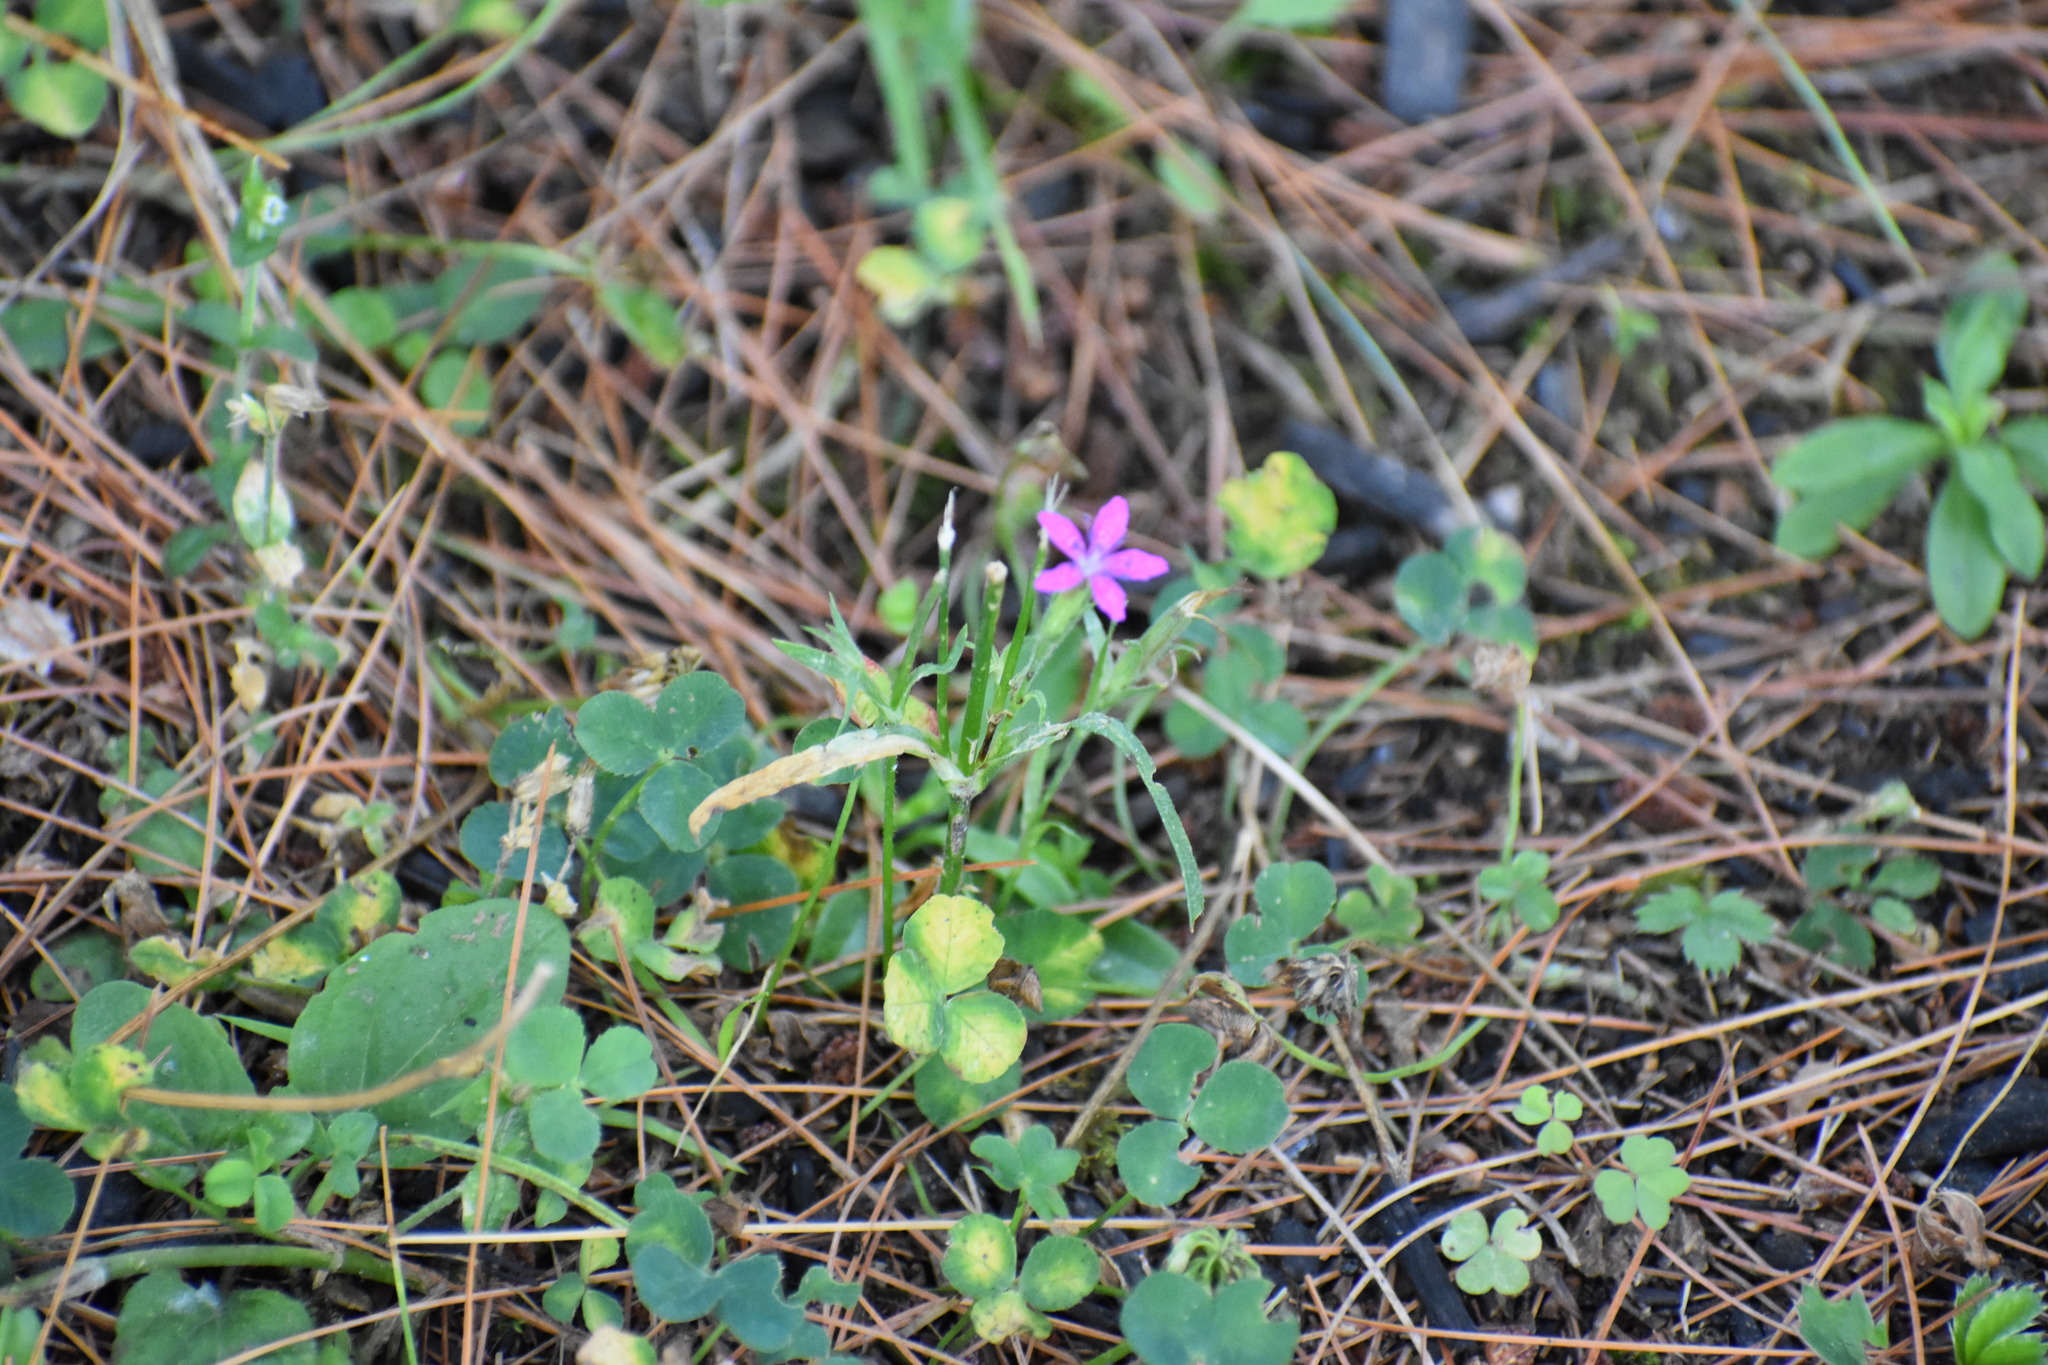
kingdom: Plantae
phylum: Tracheophyta
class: Magnoliopsida
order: Caryophyllales
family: Caryophyllaceae
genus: Dianthus
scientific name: Dianthus armeria
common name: Deptford pink
